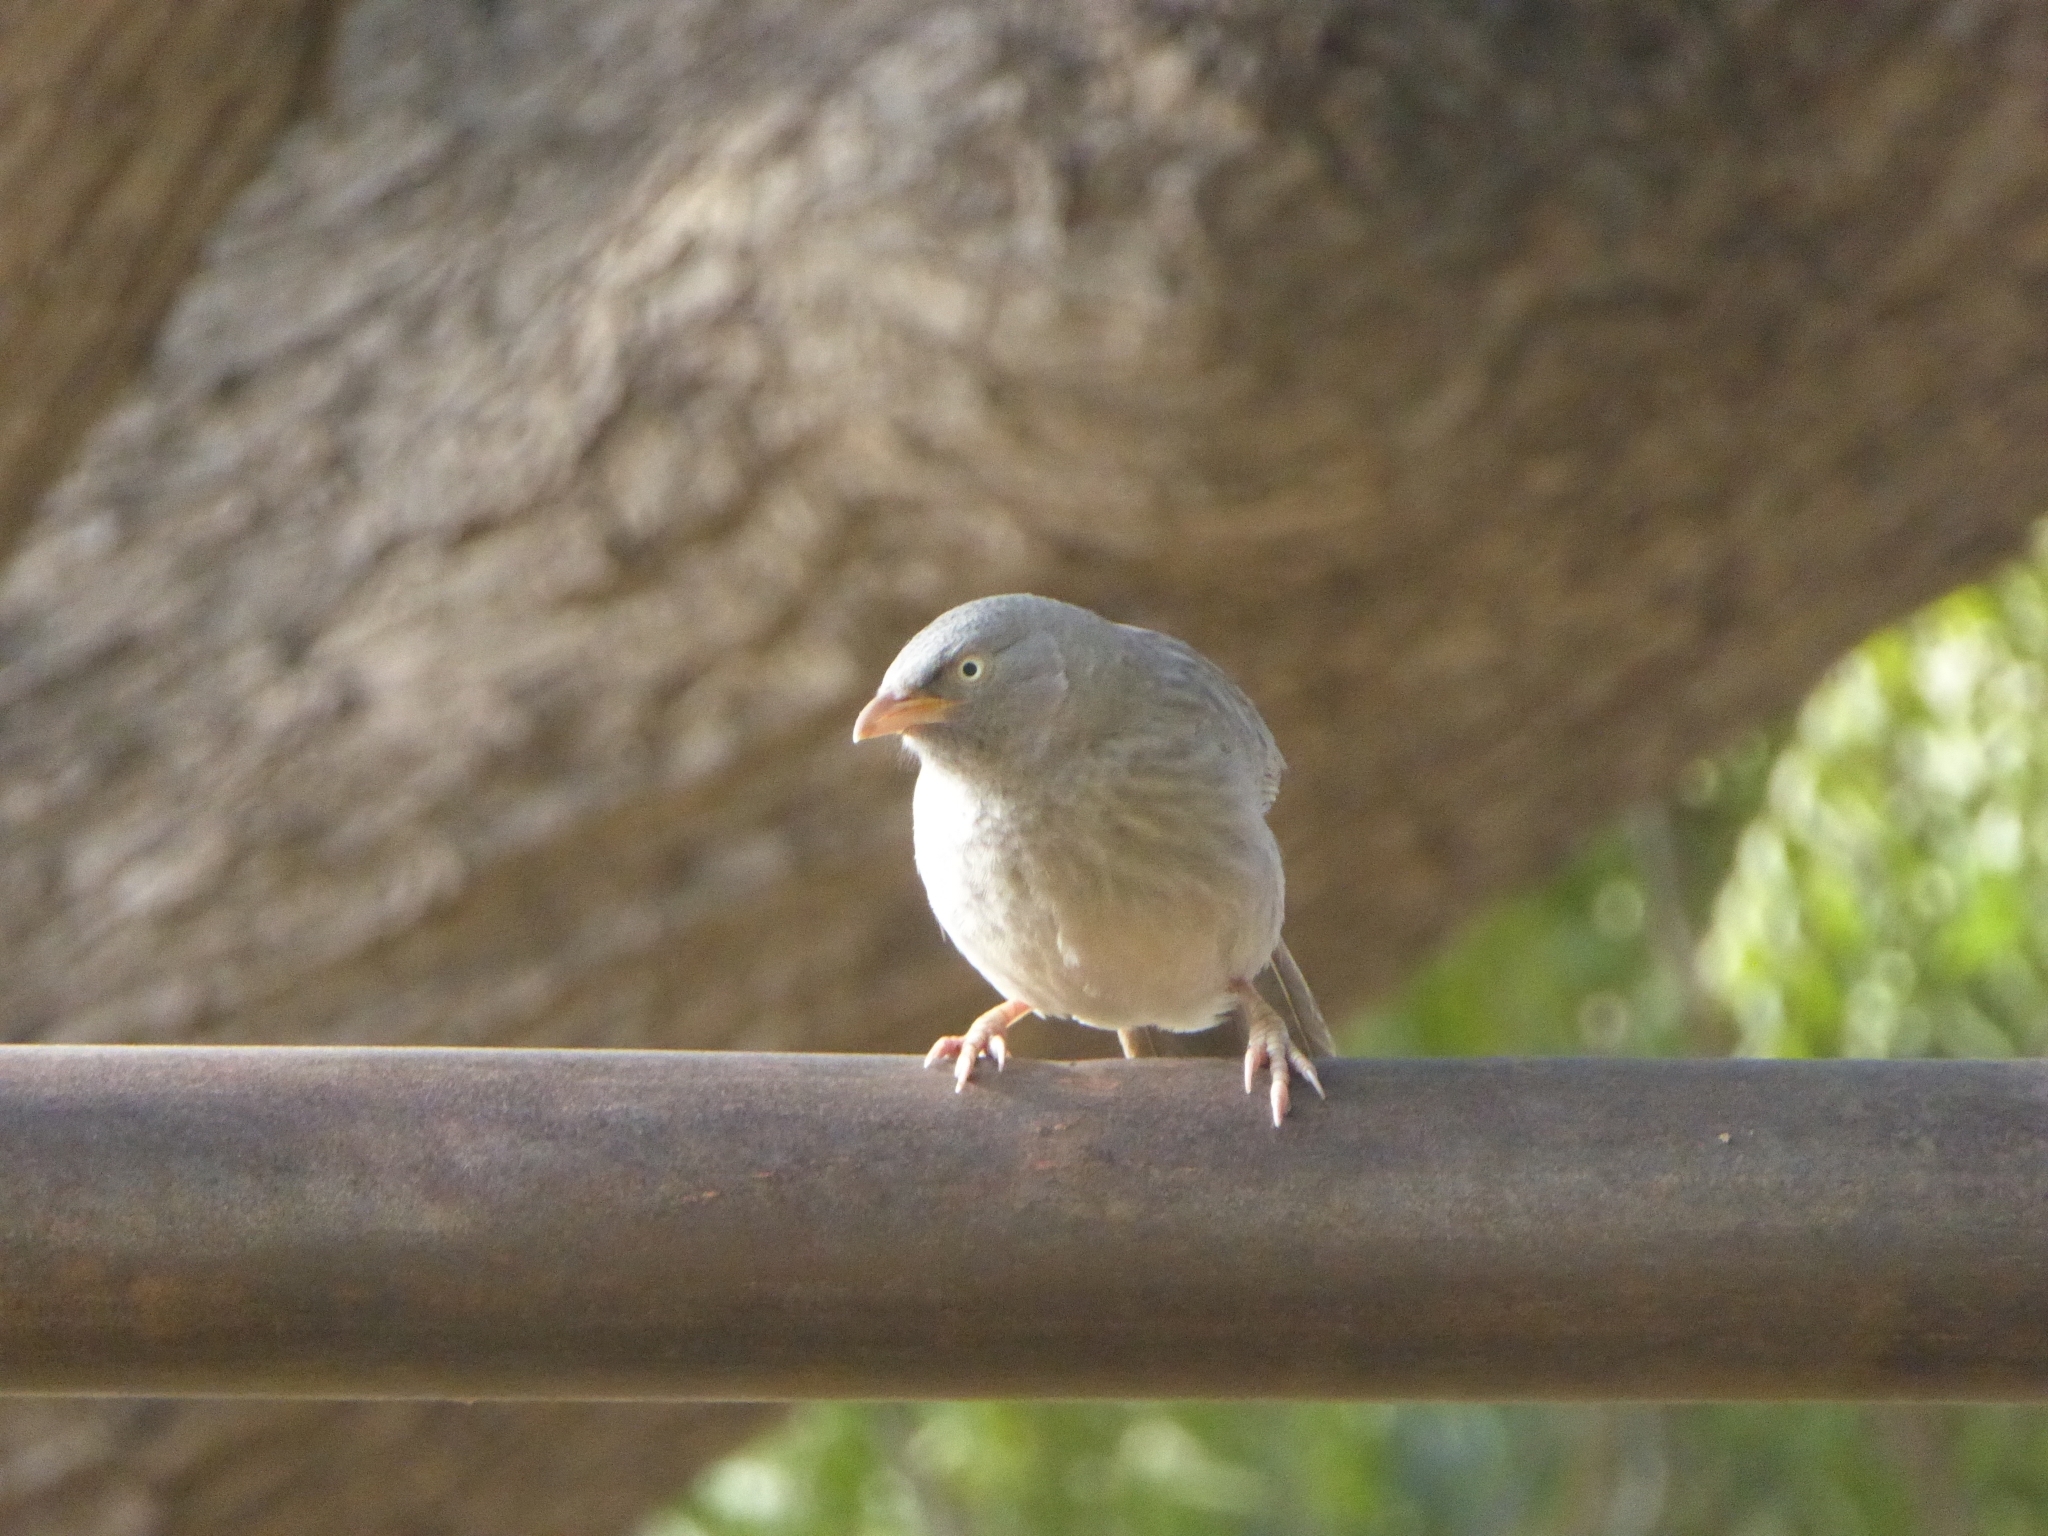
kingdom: Animalia
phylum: Chordata
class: Aves
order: Passeriformes
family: Leiothrichidae
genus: Turdoides
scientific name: Turdoides striata
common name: Jungle babbler
